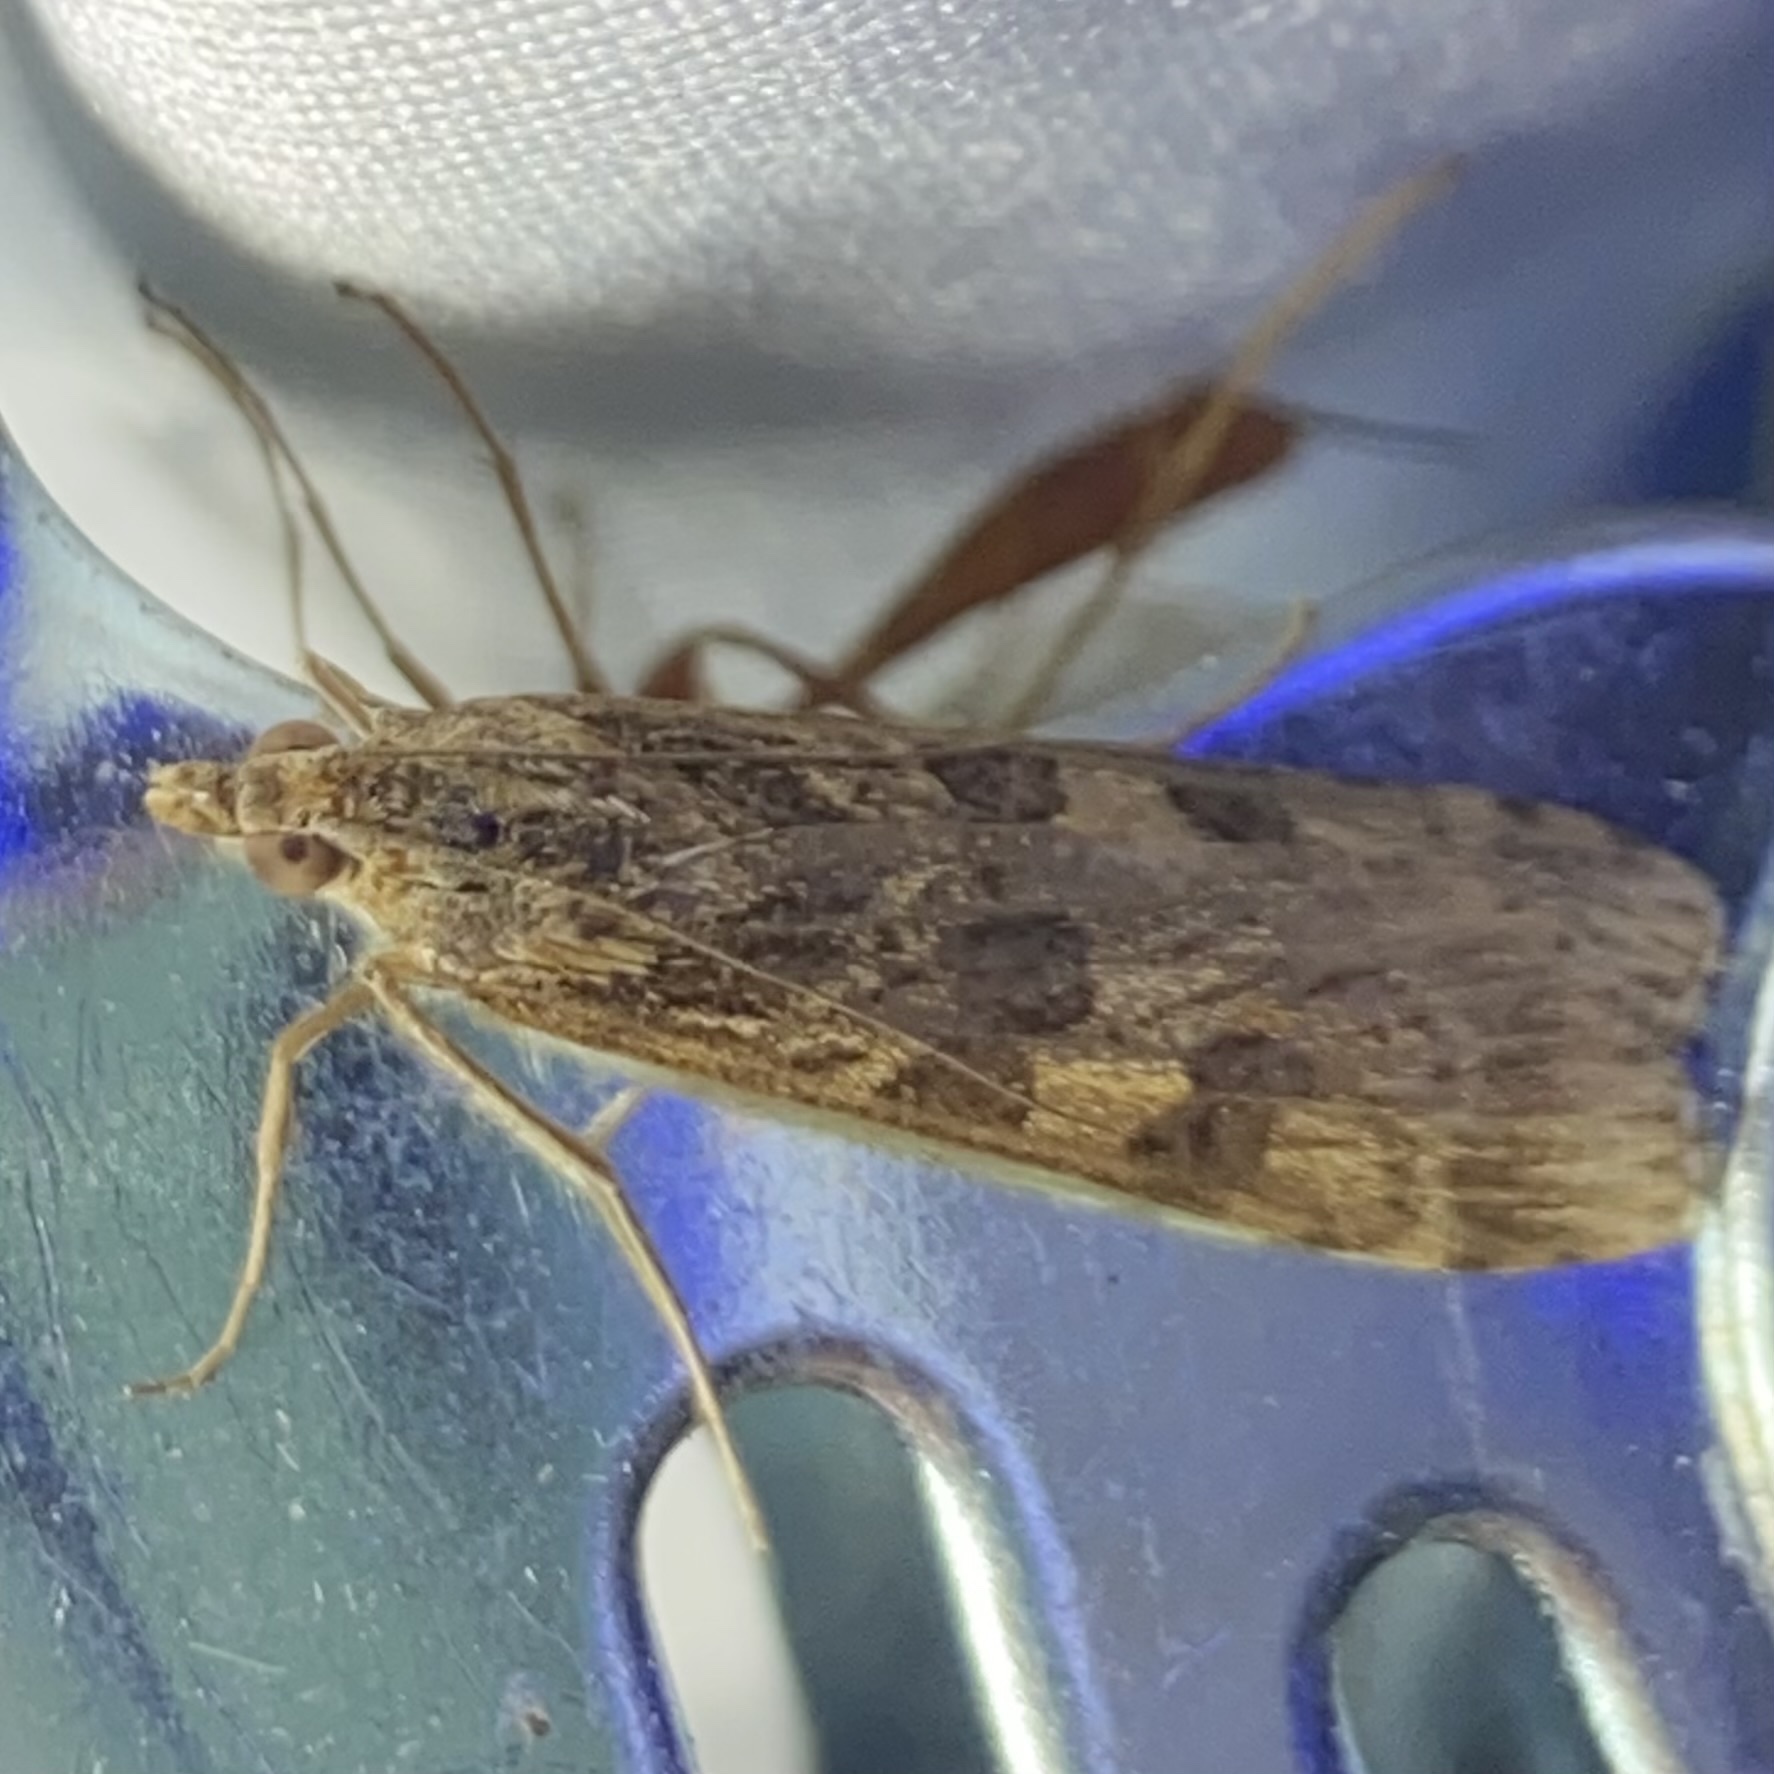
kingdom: Animalia
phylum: Arthropoda
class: Insecta
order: Lepidoptera
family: Crambidae
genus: Nomophila
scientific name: Nomophila nearctica
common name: American rush veneer
